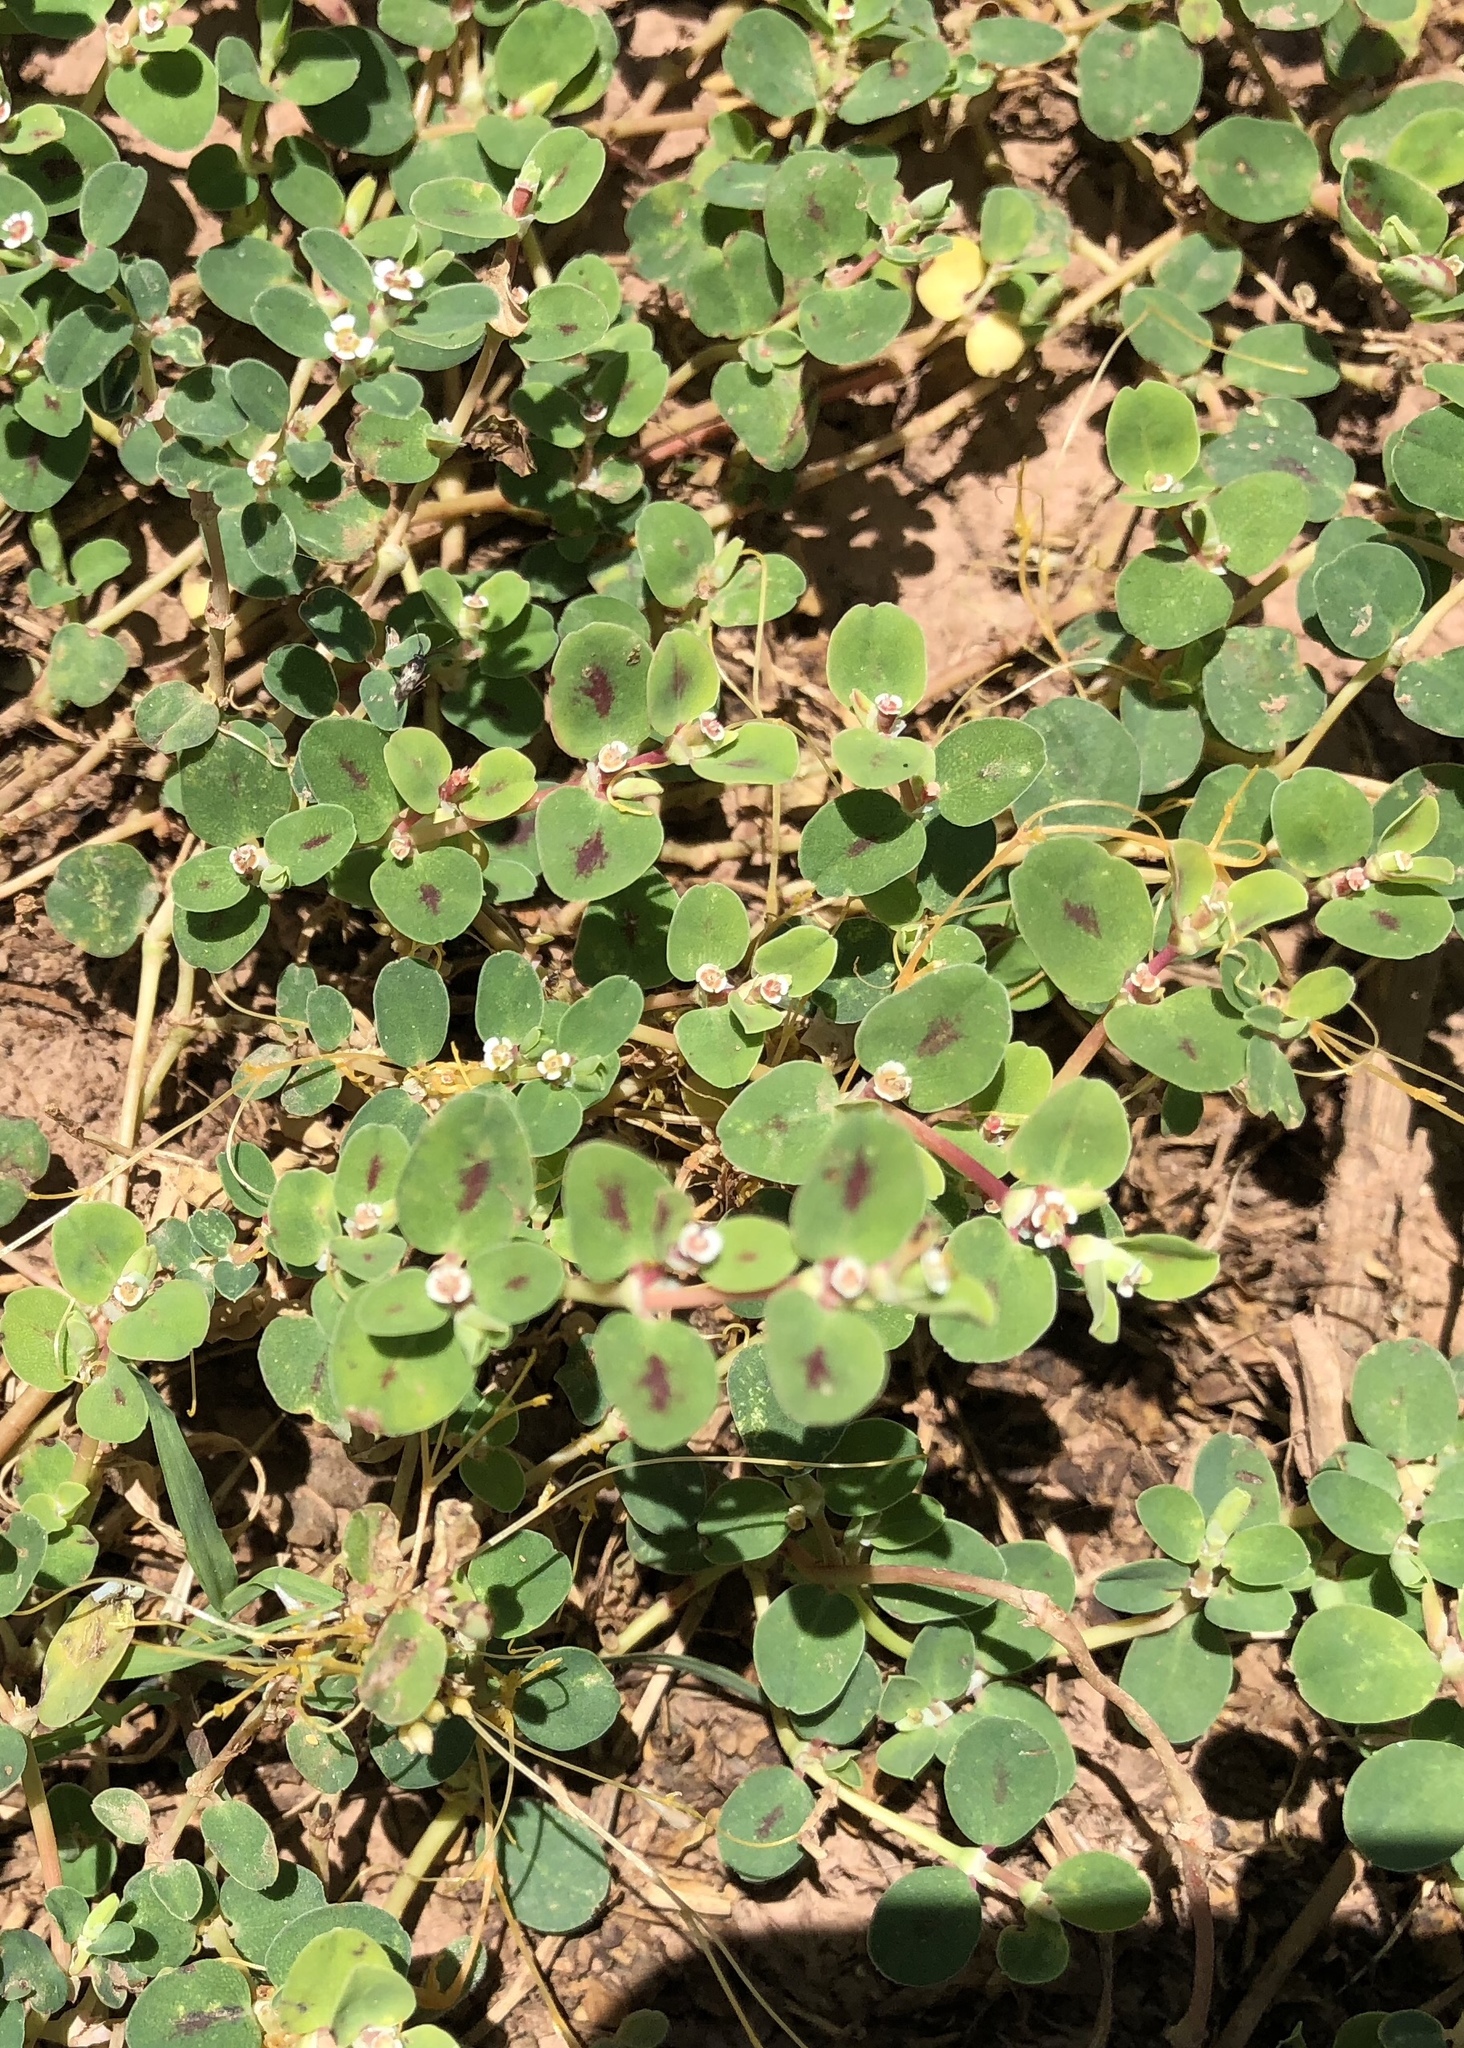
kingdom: Plantae
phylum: Tracheophyta
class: Magnoliopsida
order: Malpighiales
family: Euphorbiaceae
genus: Euphorbia
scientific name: Euphorbia albomarginata
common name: Whitemargin sandmat
